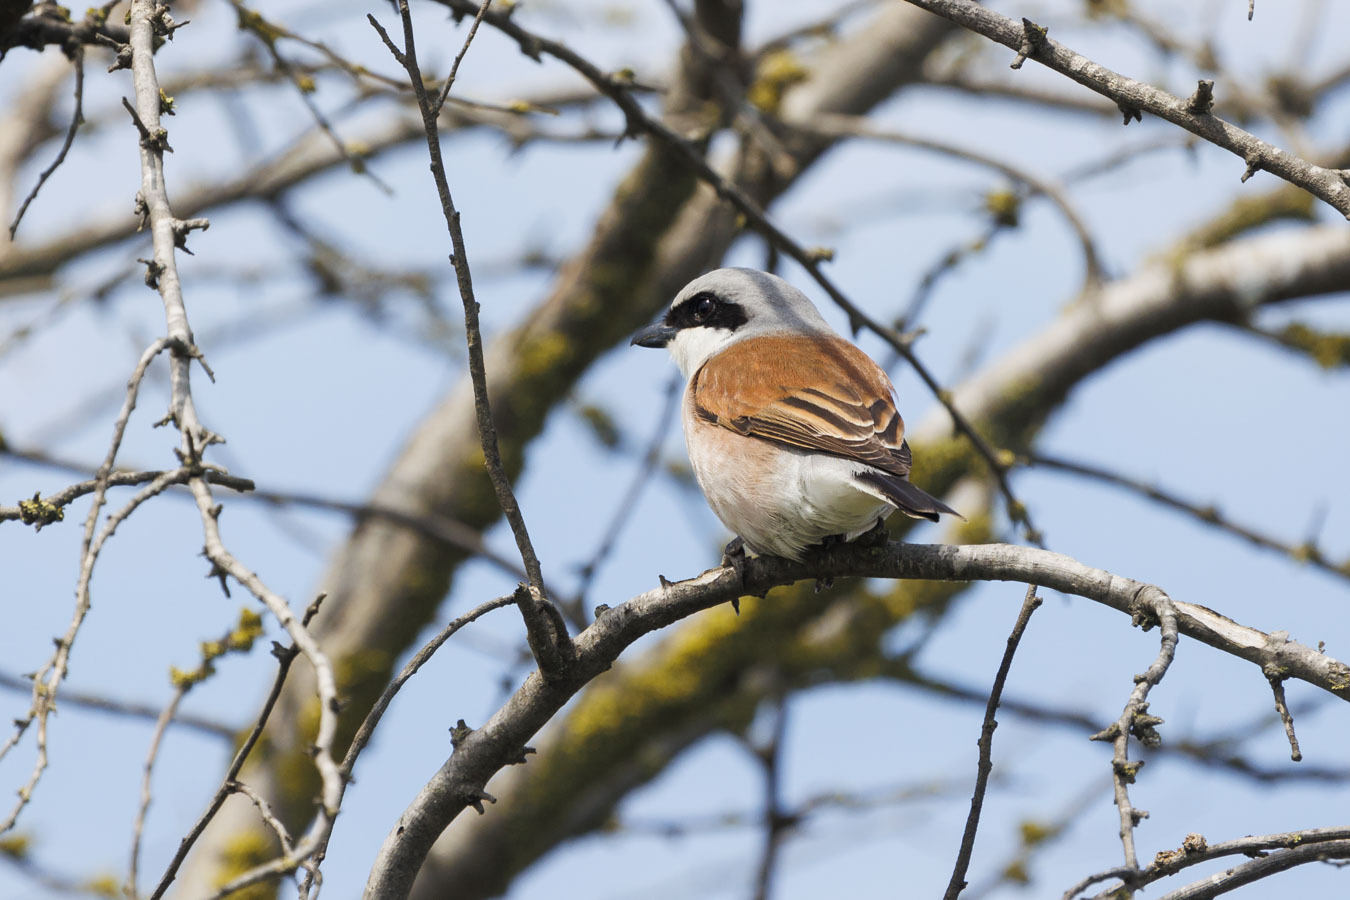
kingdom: Animalia
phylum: Chordata
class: Aves
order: Passeriformes
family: Laniidae
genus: Lanius
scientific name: Lanius collurio
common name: Red-backed shrike
